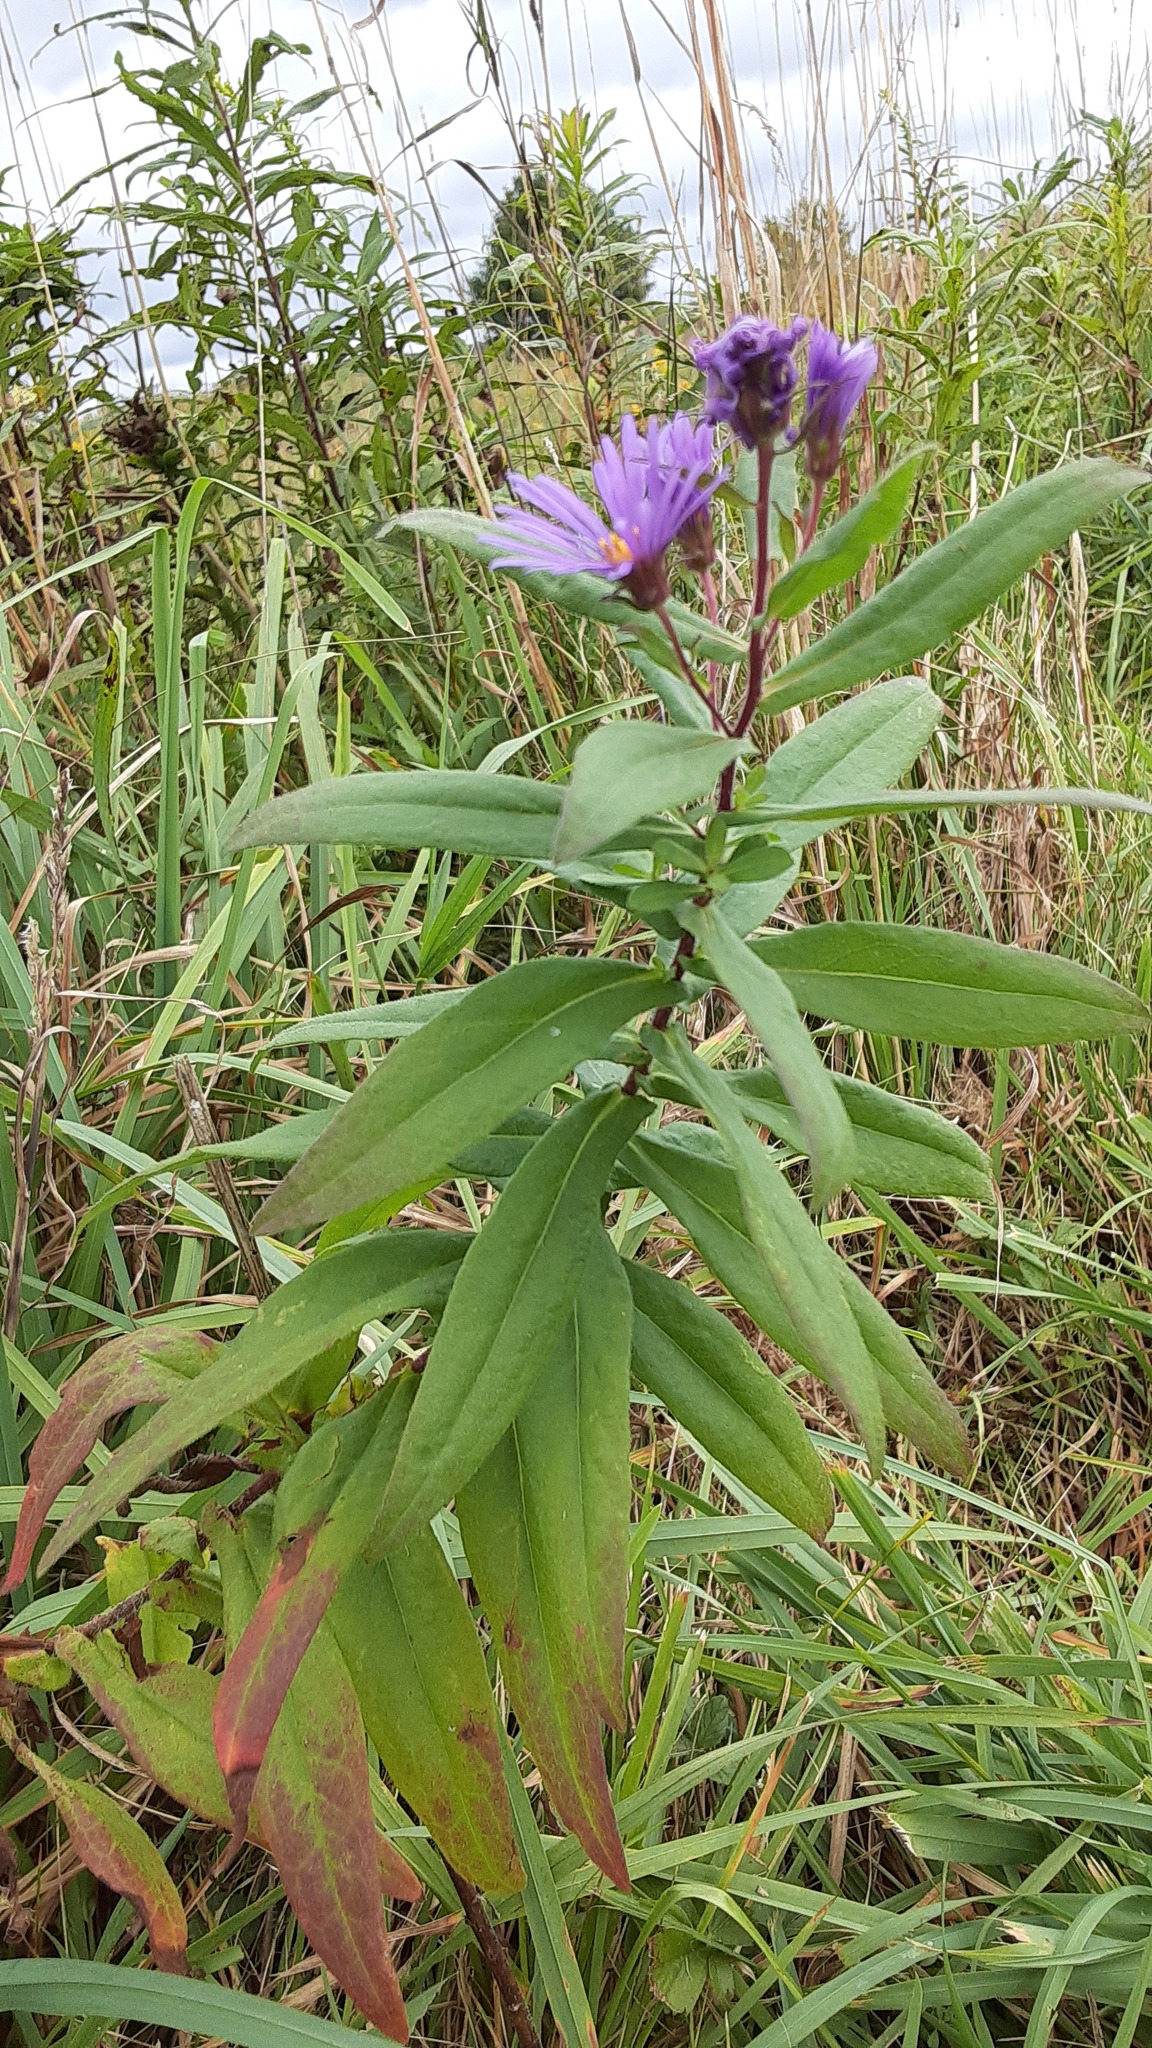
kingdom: Plantae
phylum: Tracheophyta
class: Magnoliopsida
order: Asterales
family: Asteraceae
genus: Symphyotrichum
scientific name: Symphyotrichum novae-angliae
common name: Michaelmas daisy
